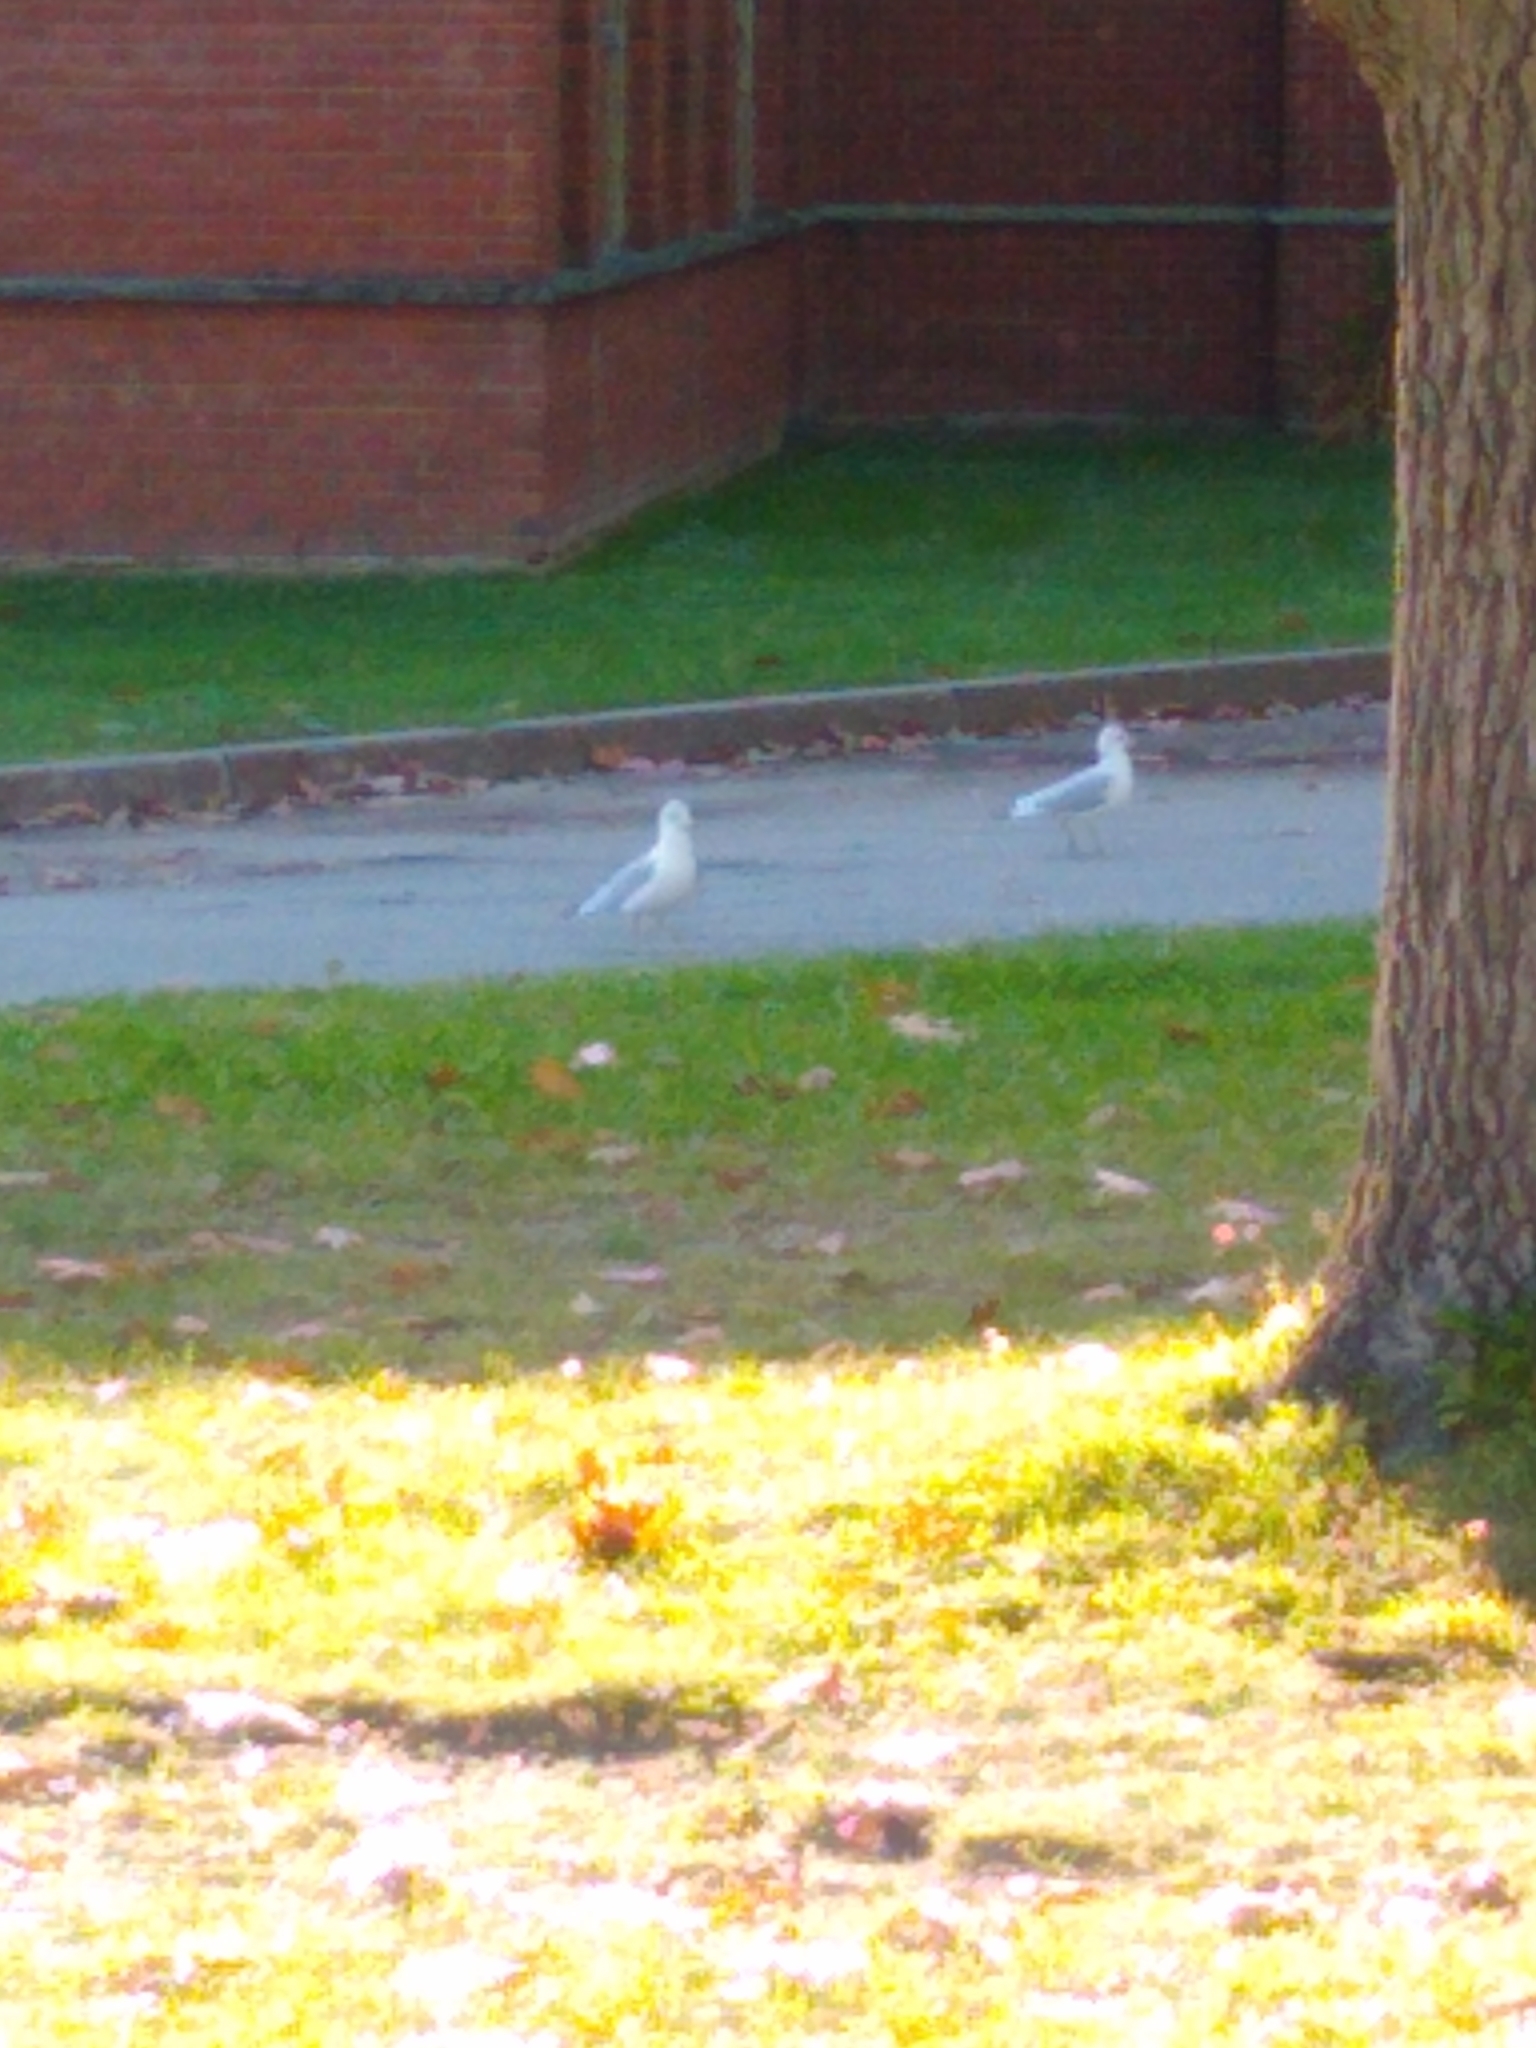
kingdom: Animalia
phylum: Chordata
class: Aves
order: Charadriiformes
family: Laridae
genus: Larus
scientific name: Larus delawarensis
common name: Ring-billed gull
